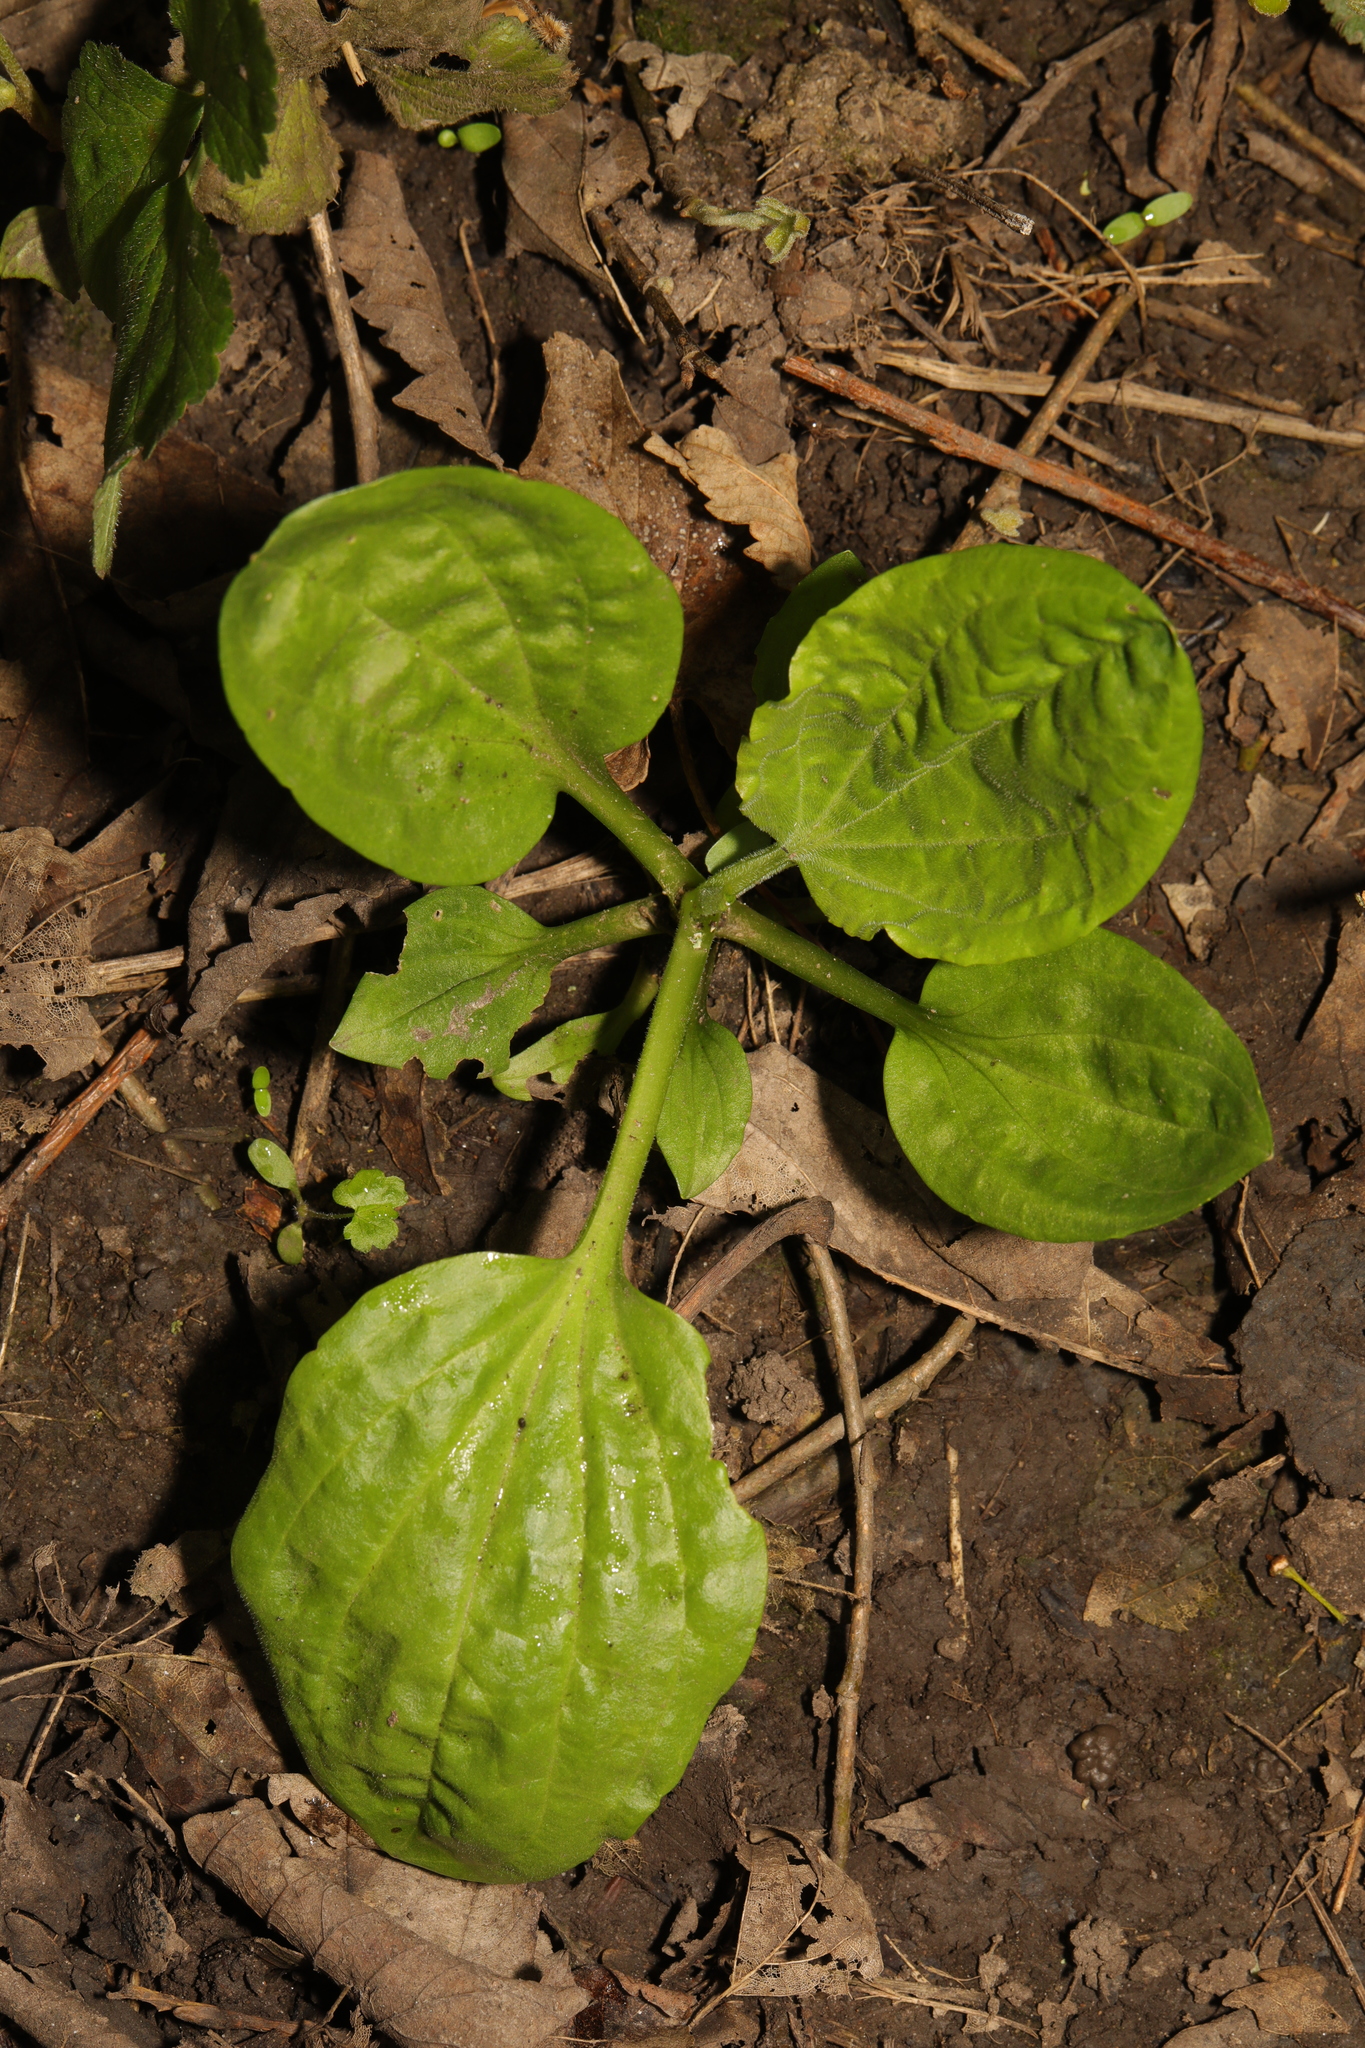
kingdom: Plantae
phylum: Tracheophyta
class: Magnoliopsida
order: Lamiales
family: Plantaginaceae
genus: Plantago
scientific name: Plantago major
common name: Common plantain
